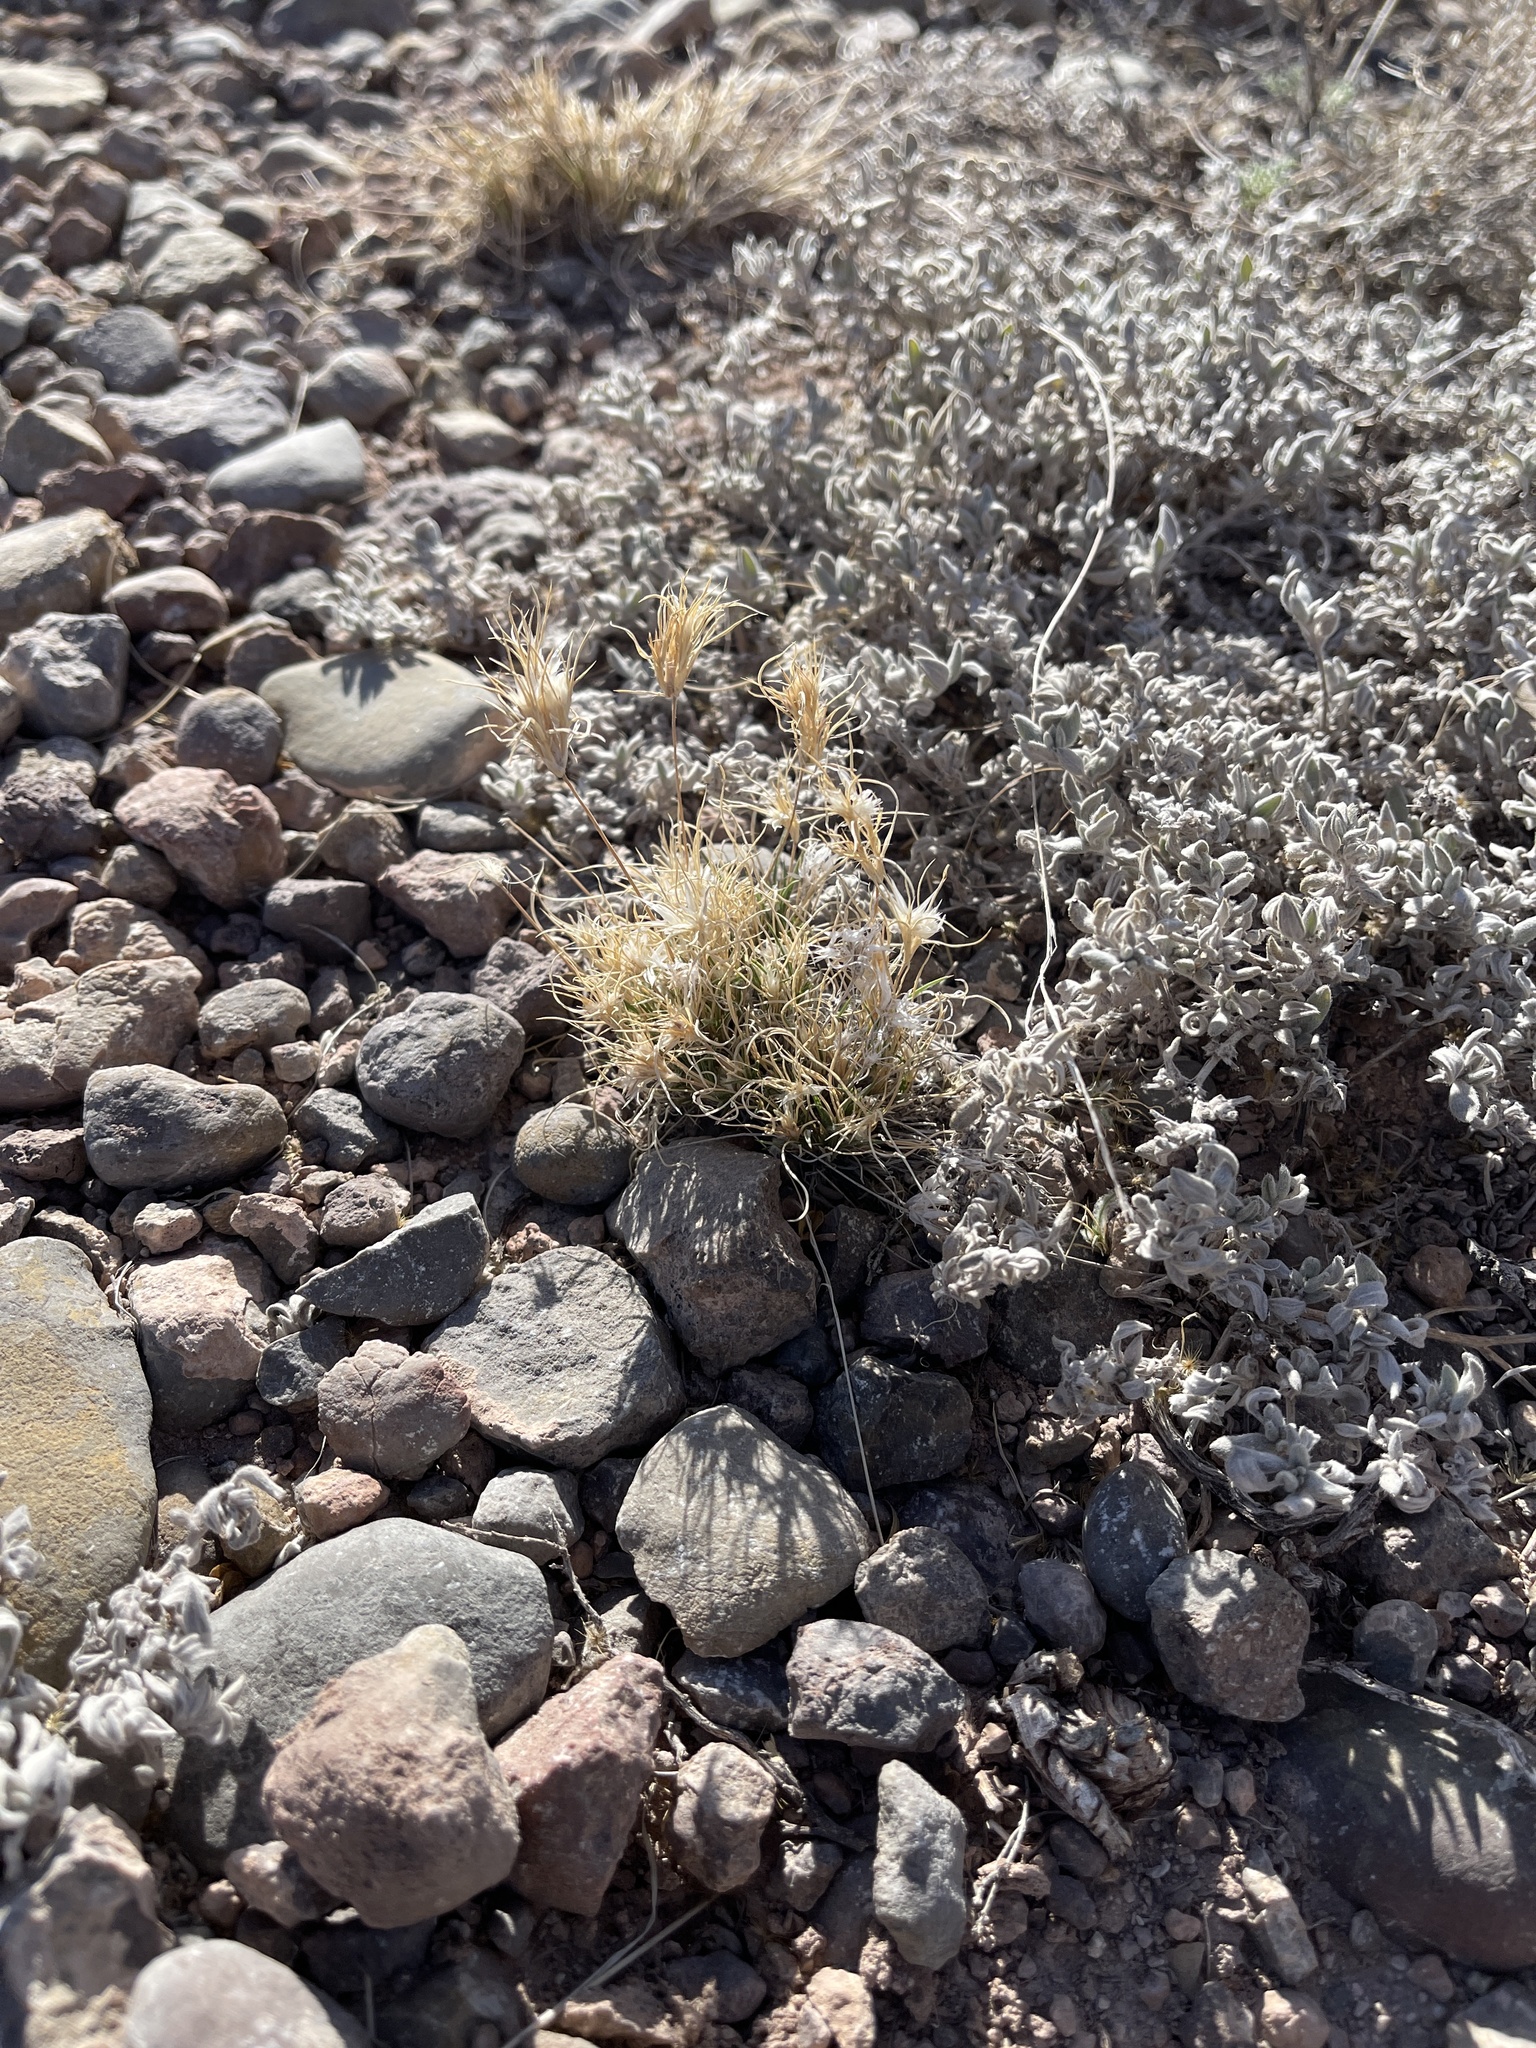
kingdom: Plantae
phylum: Tracheophyta
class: Liliopsida
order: Poales
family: Poaceae
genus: Dasyochloa
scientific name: Dasyochloa pulchella
